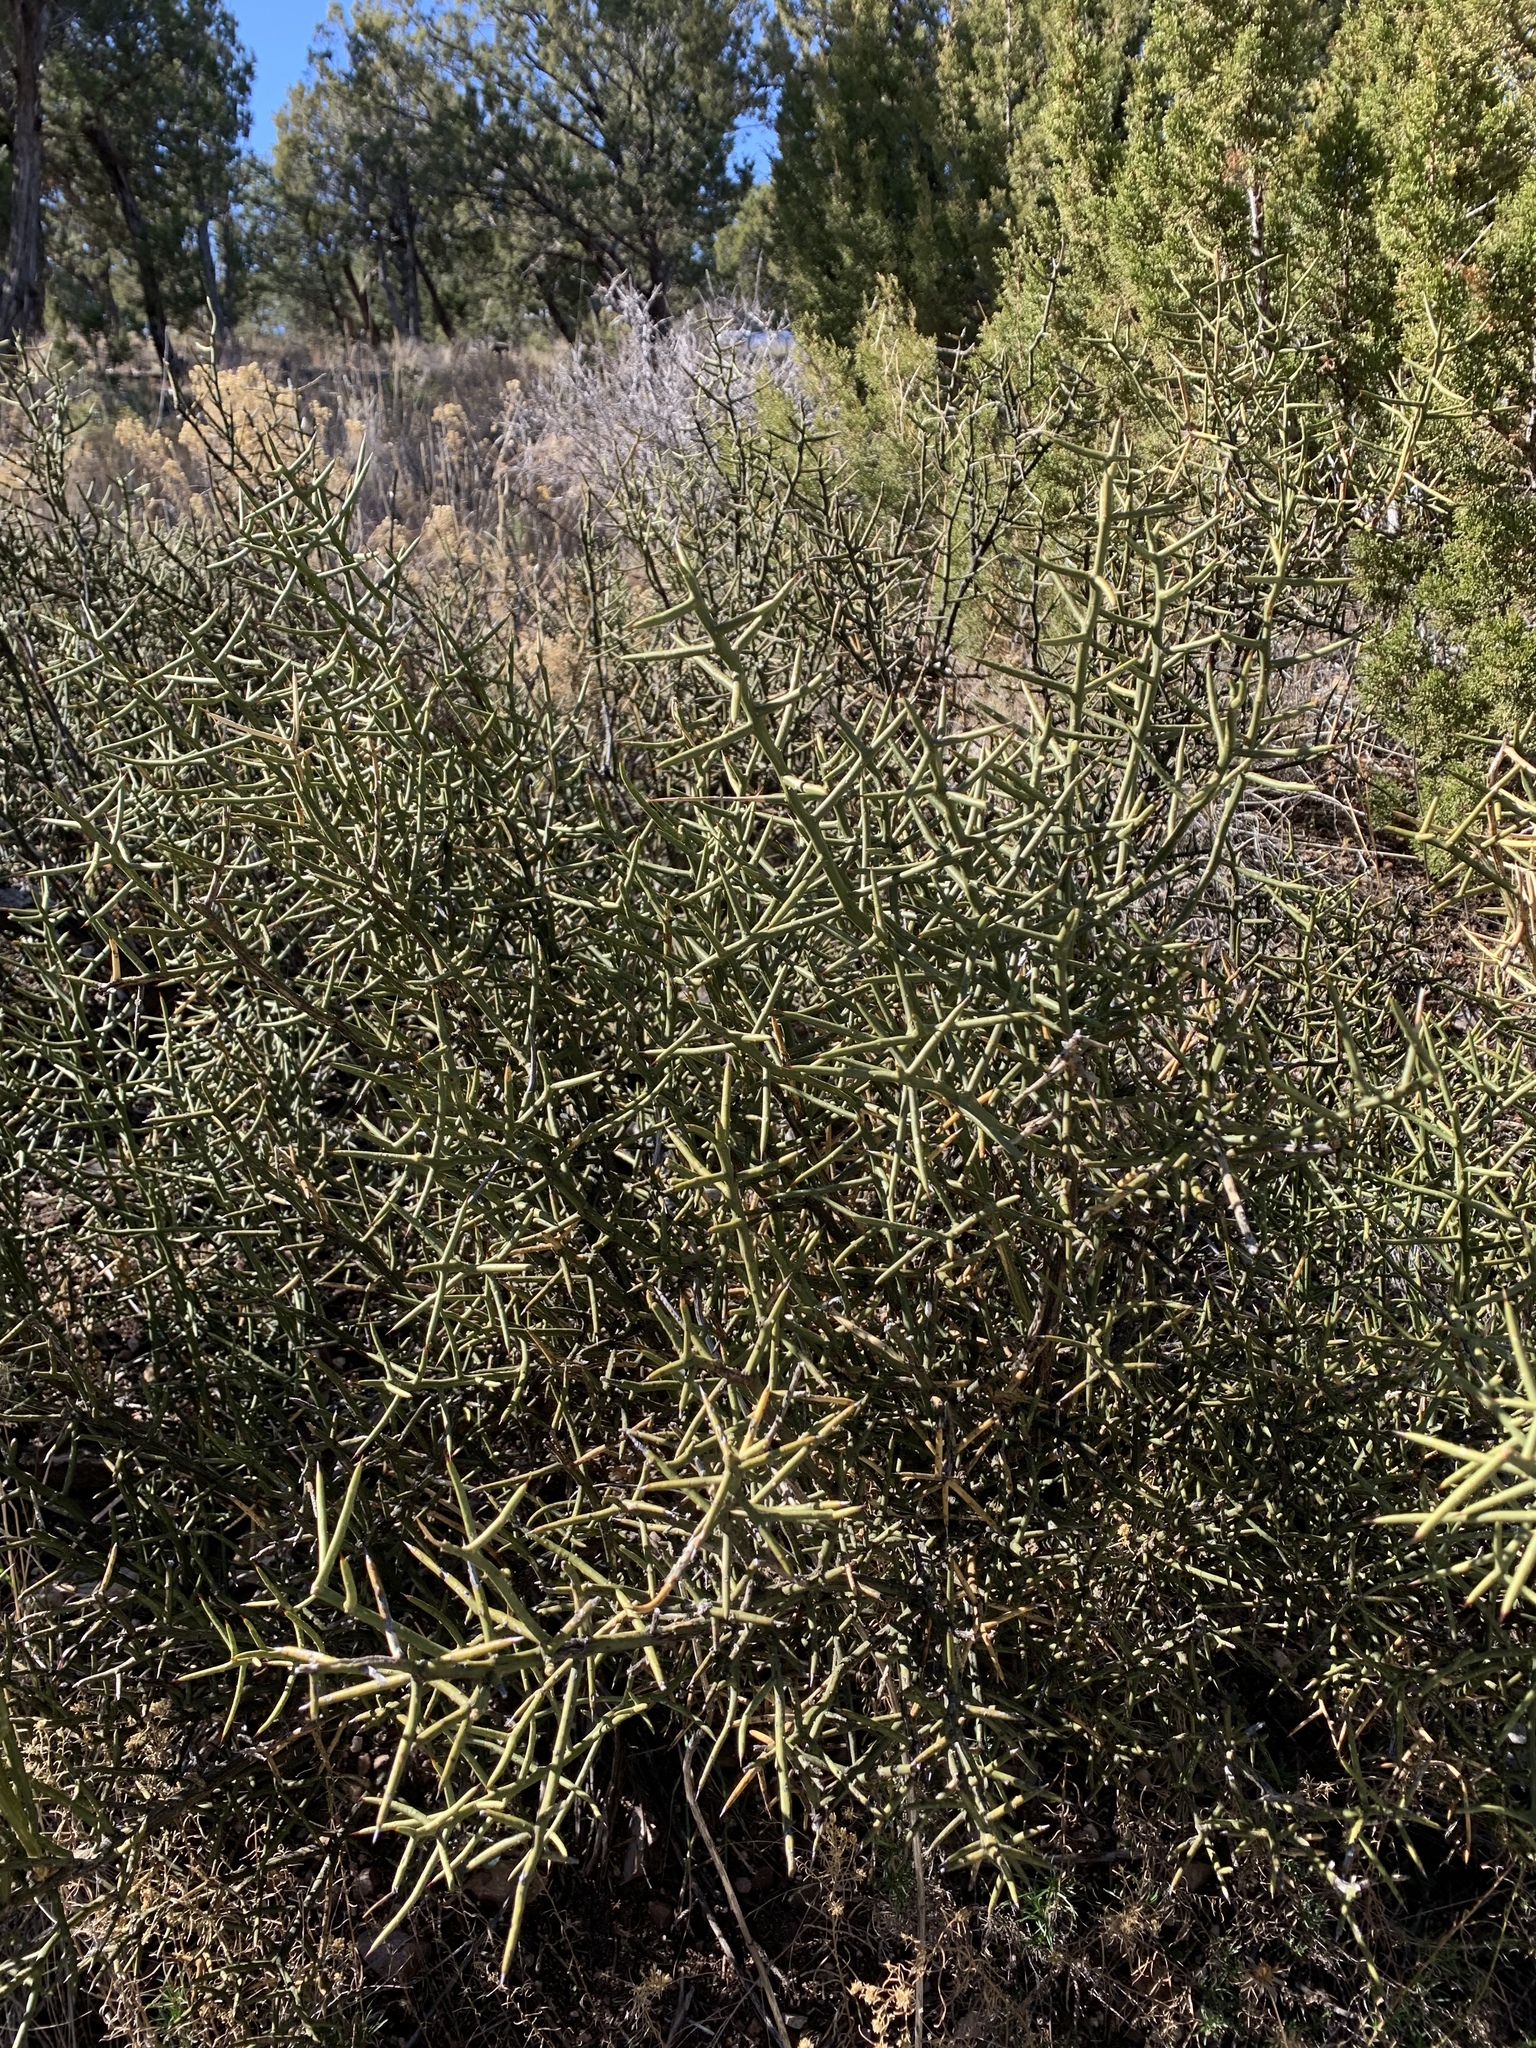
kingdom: Plantae
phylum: Tracheophyta
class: Magnoliopsida
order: Brassicales
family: Koeberliniaceae
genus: Koeberlinia
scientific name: Koeberlinia spinosa
